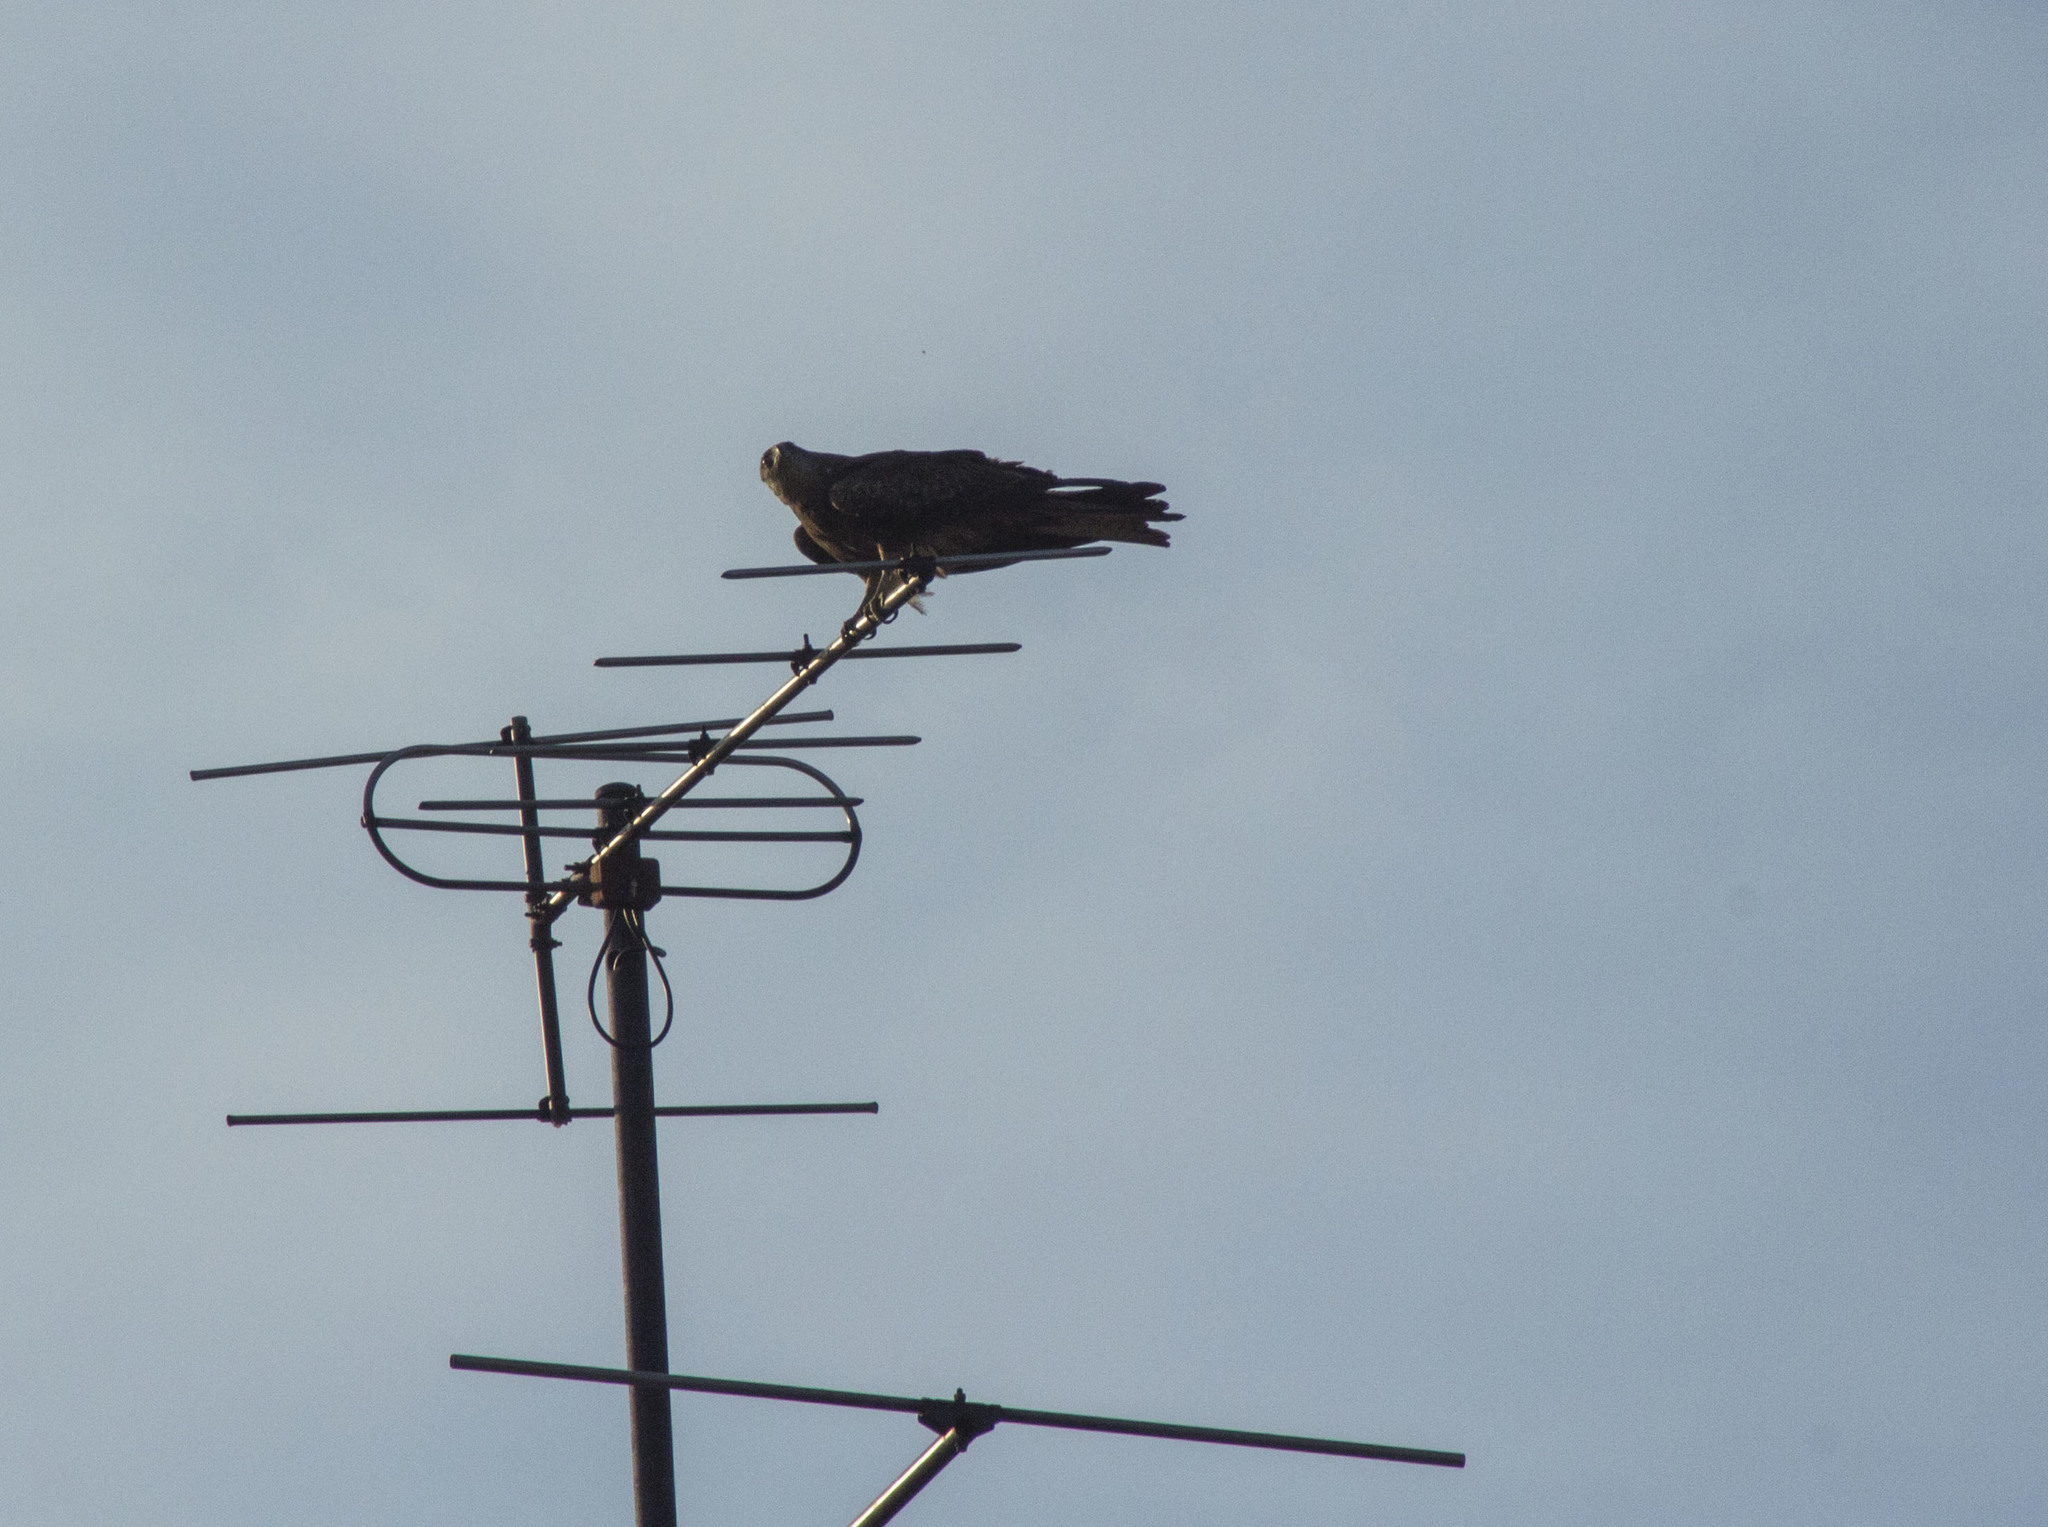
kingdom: Animalia
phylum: Chordata
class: Aves
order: Accipitriformes
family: Accipitridae
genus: Milvus
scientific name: Milvus migrans
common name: Black kite
